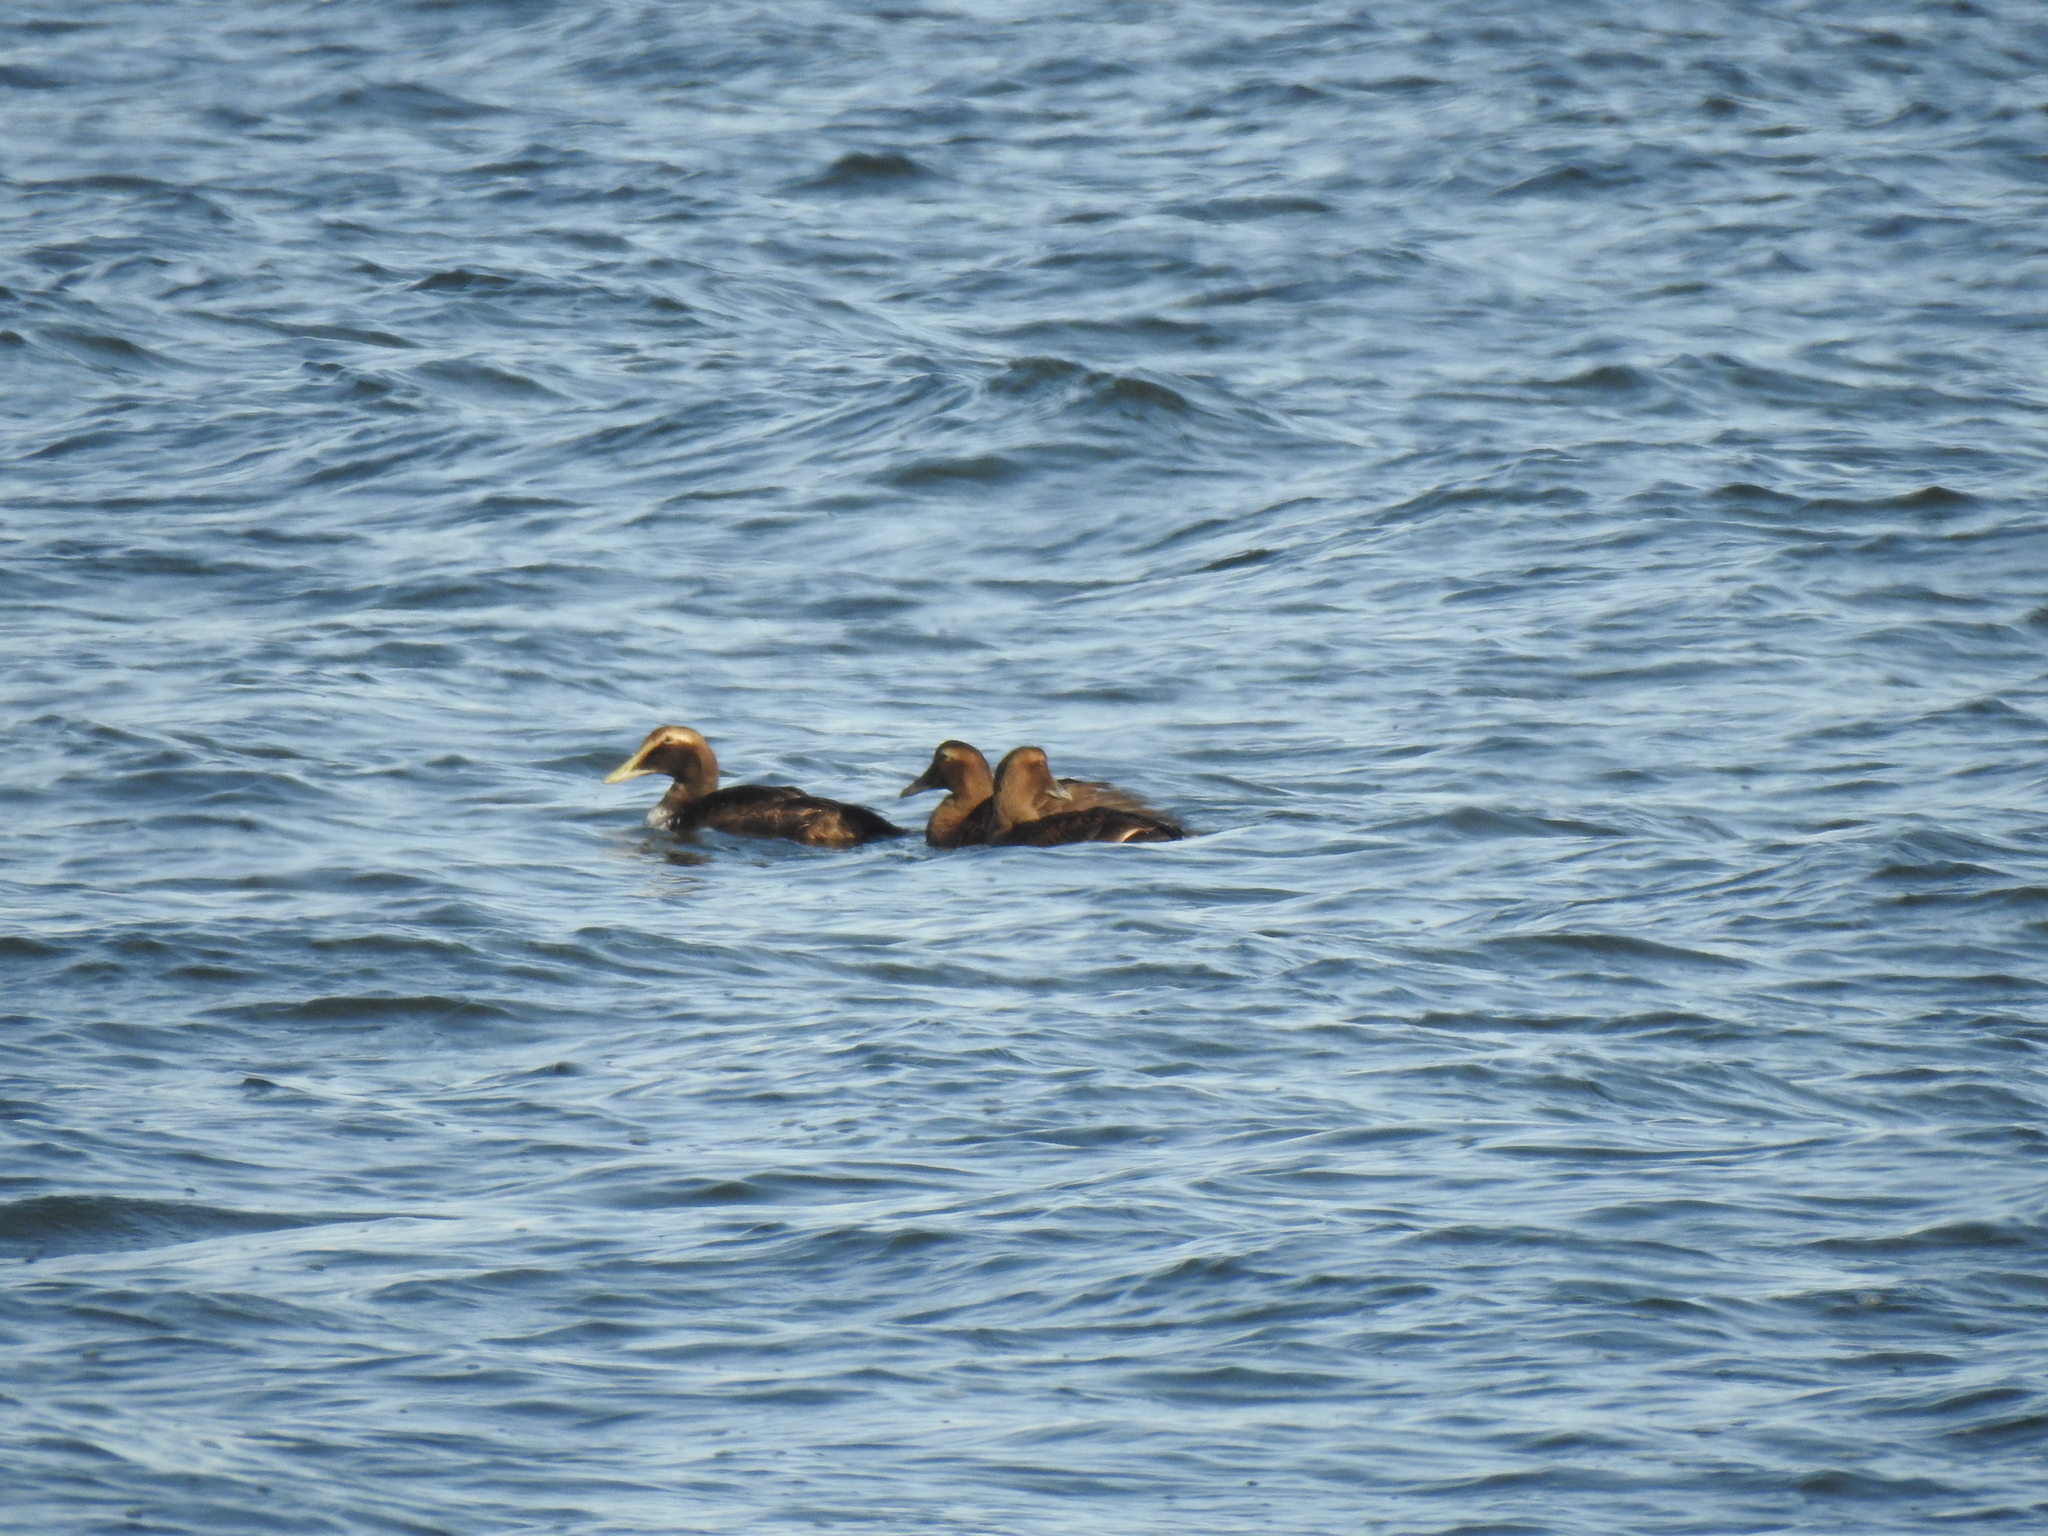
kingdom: Animalia
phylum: Chordata
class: Aves
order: Anseriformes
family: Anatidae
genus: Somateria
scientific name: Somateria mollissima
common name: Common eider
